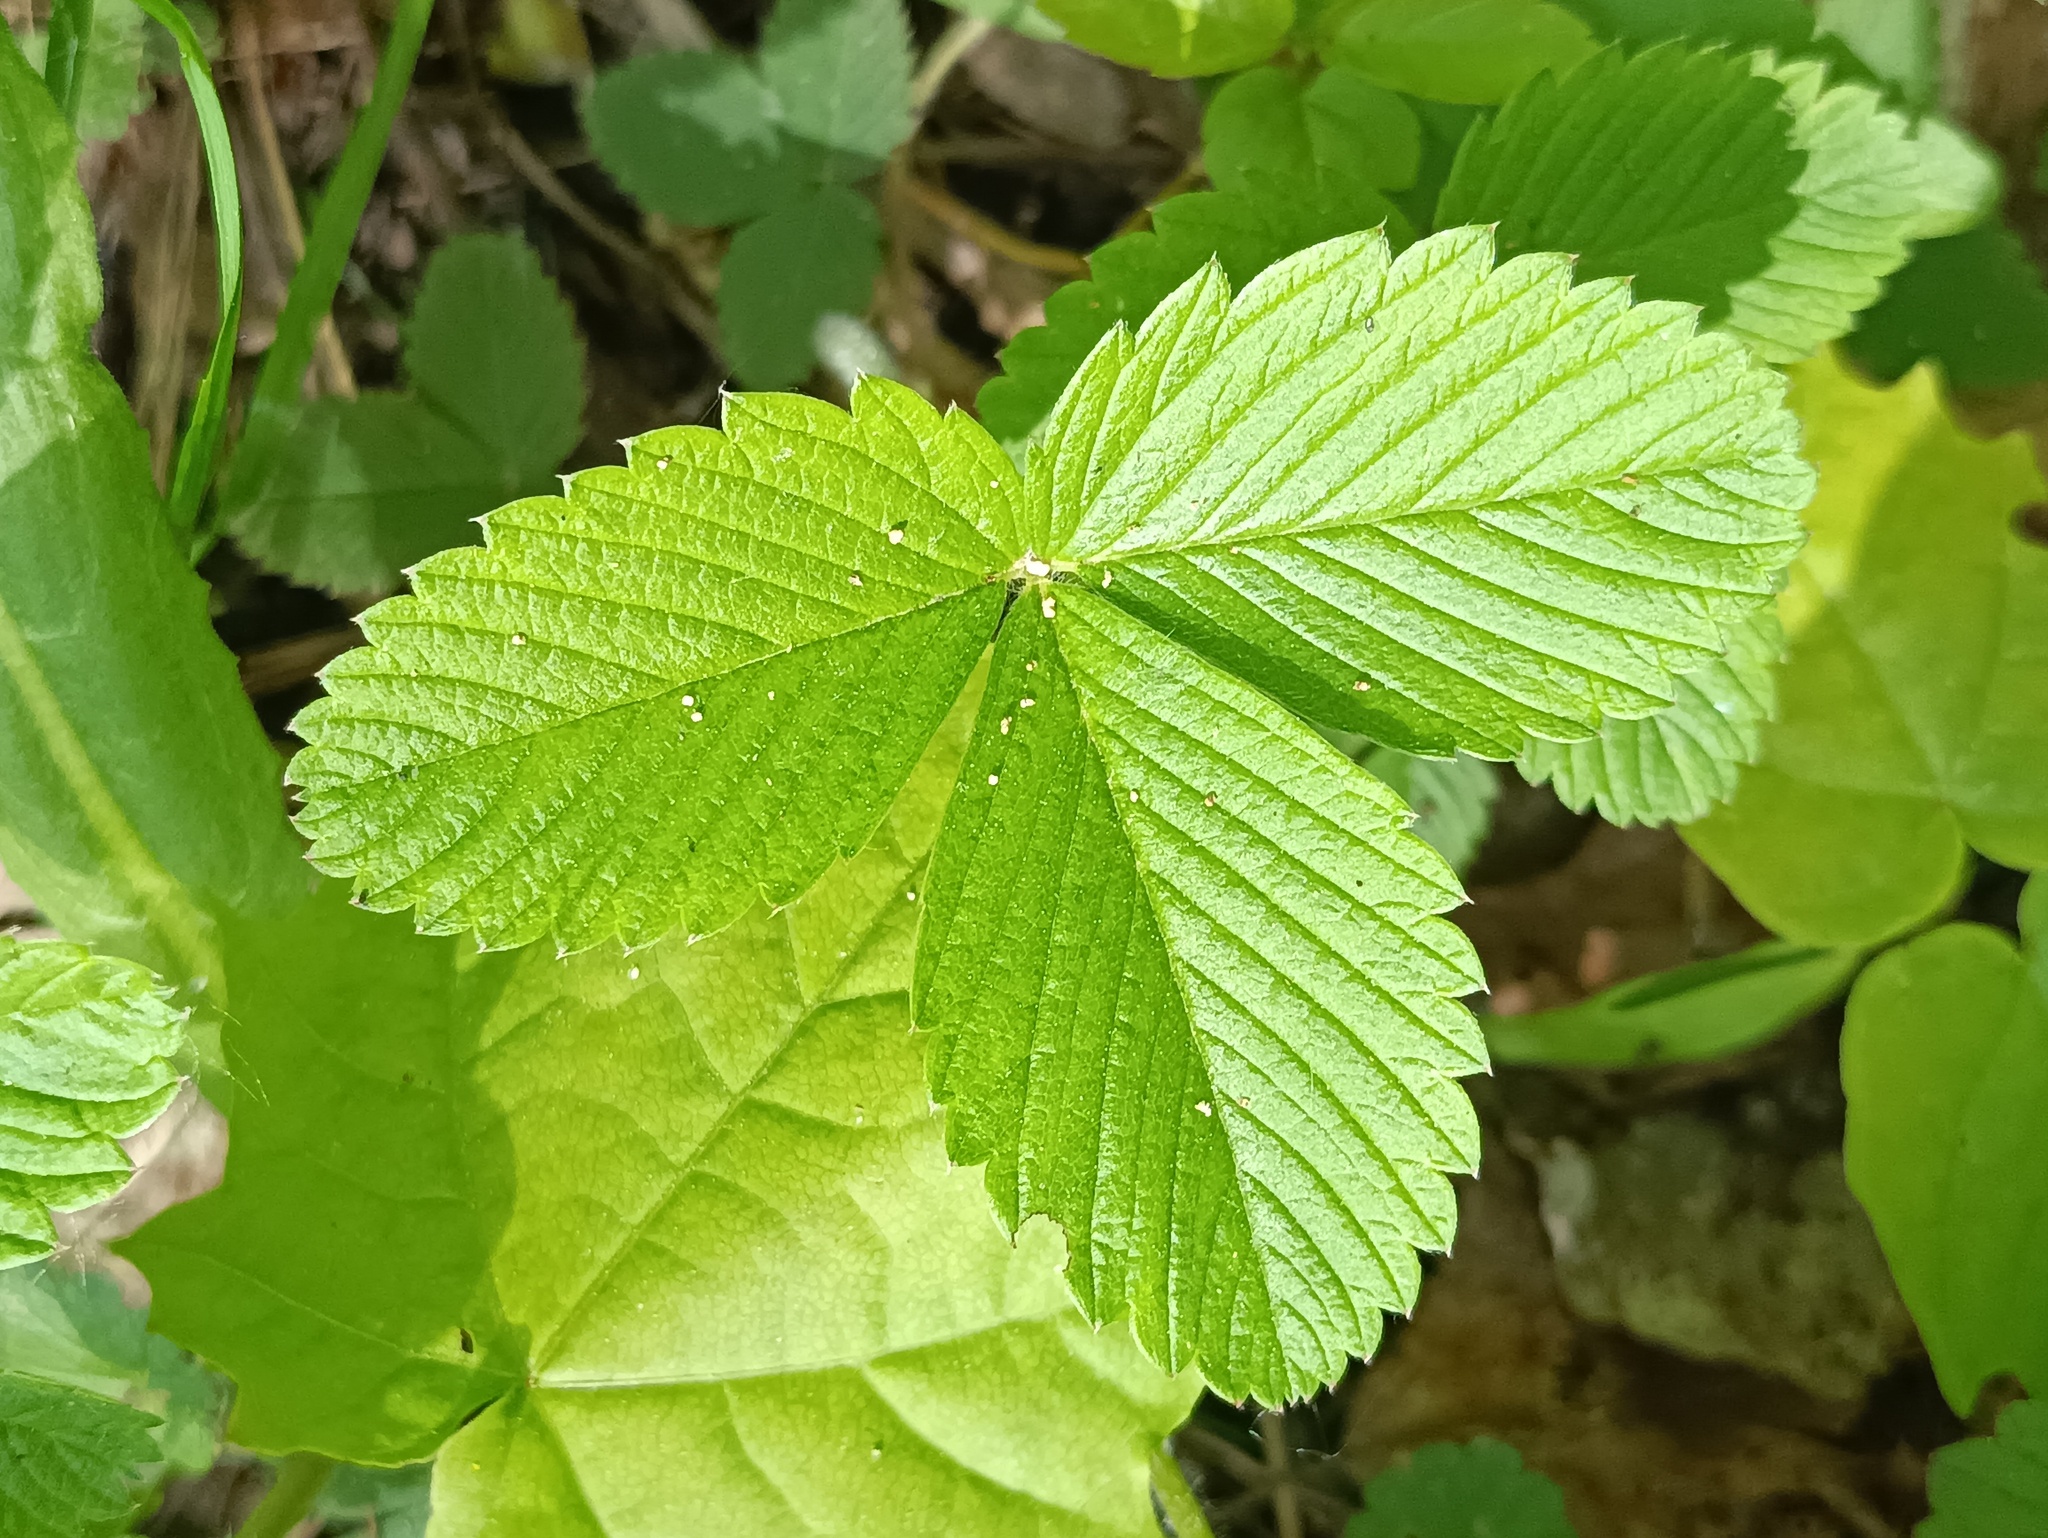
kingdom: Plantae
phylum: Tracheophyta
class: Magnoliopsida
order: Rosales
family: Rosaceae
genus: Fragaria
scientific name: Fragaria viridis
